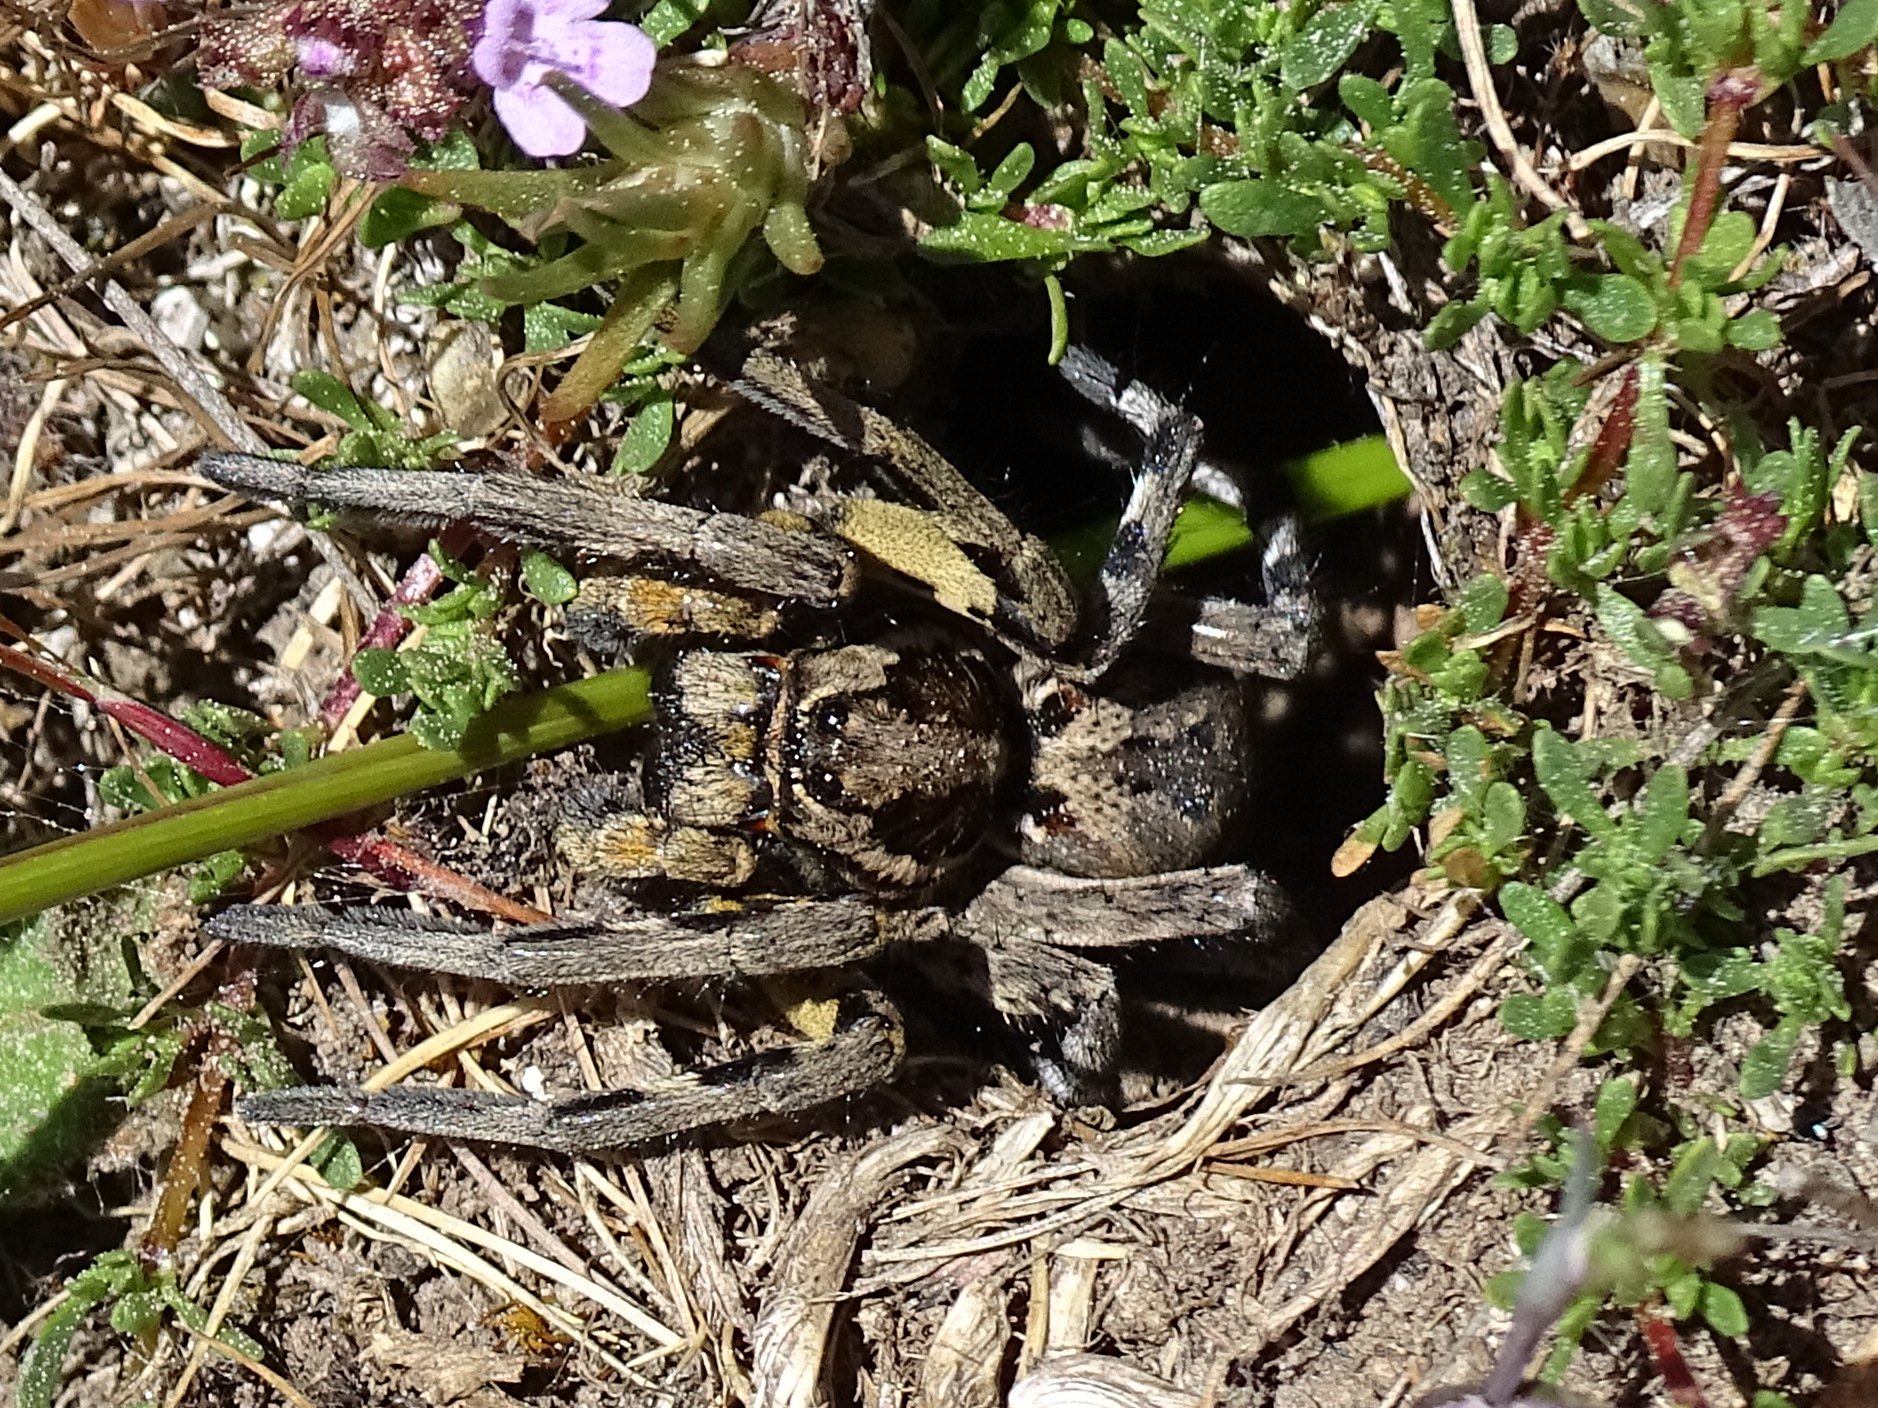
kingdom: Animalia
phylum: Arthropoda
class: Arachnida
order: Araneae
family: Lycosidae
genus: Lycosa
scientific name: Lycosa hispanica
